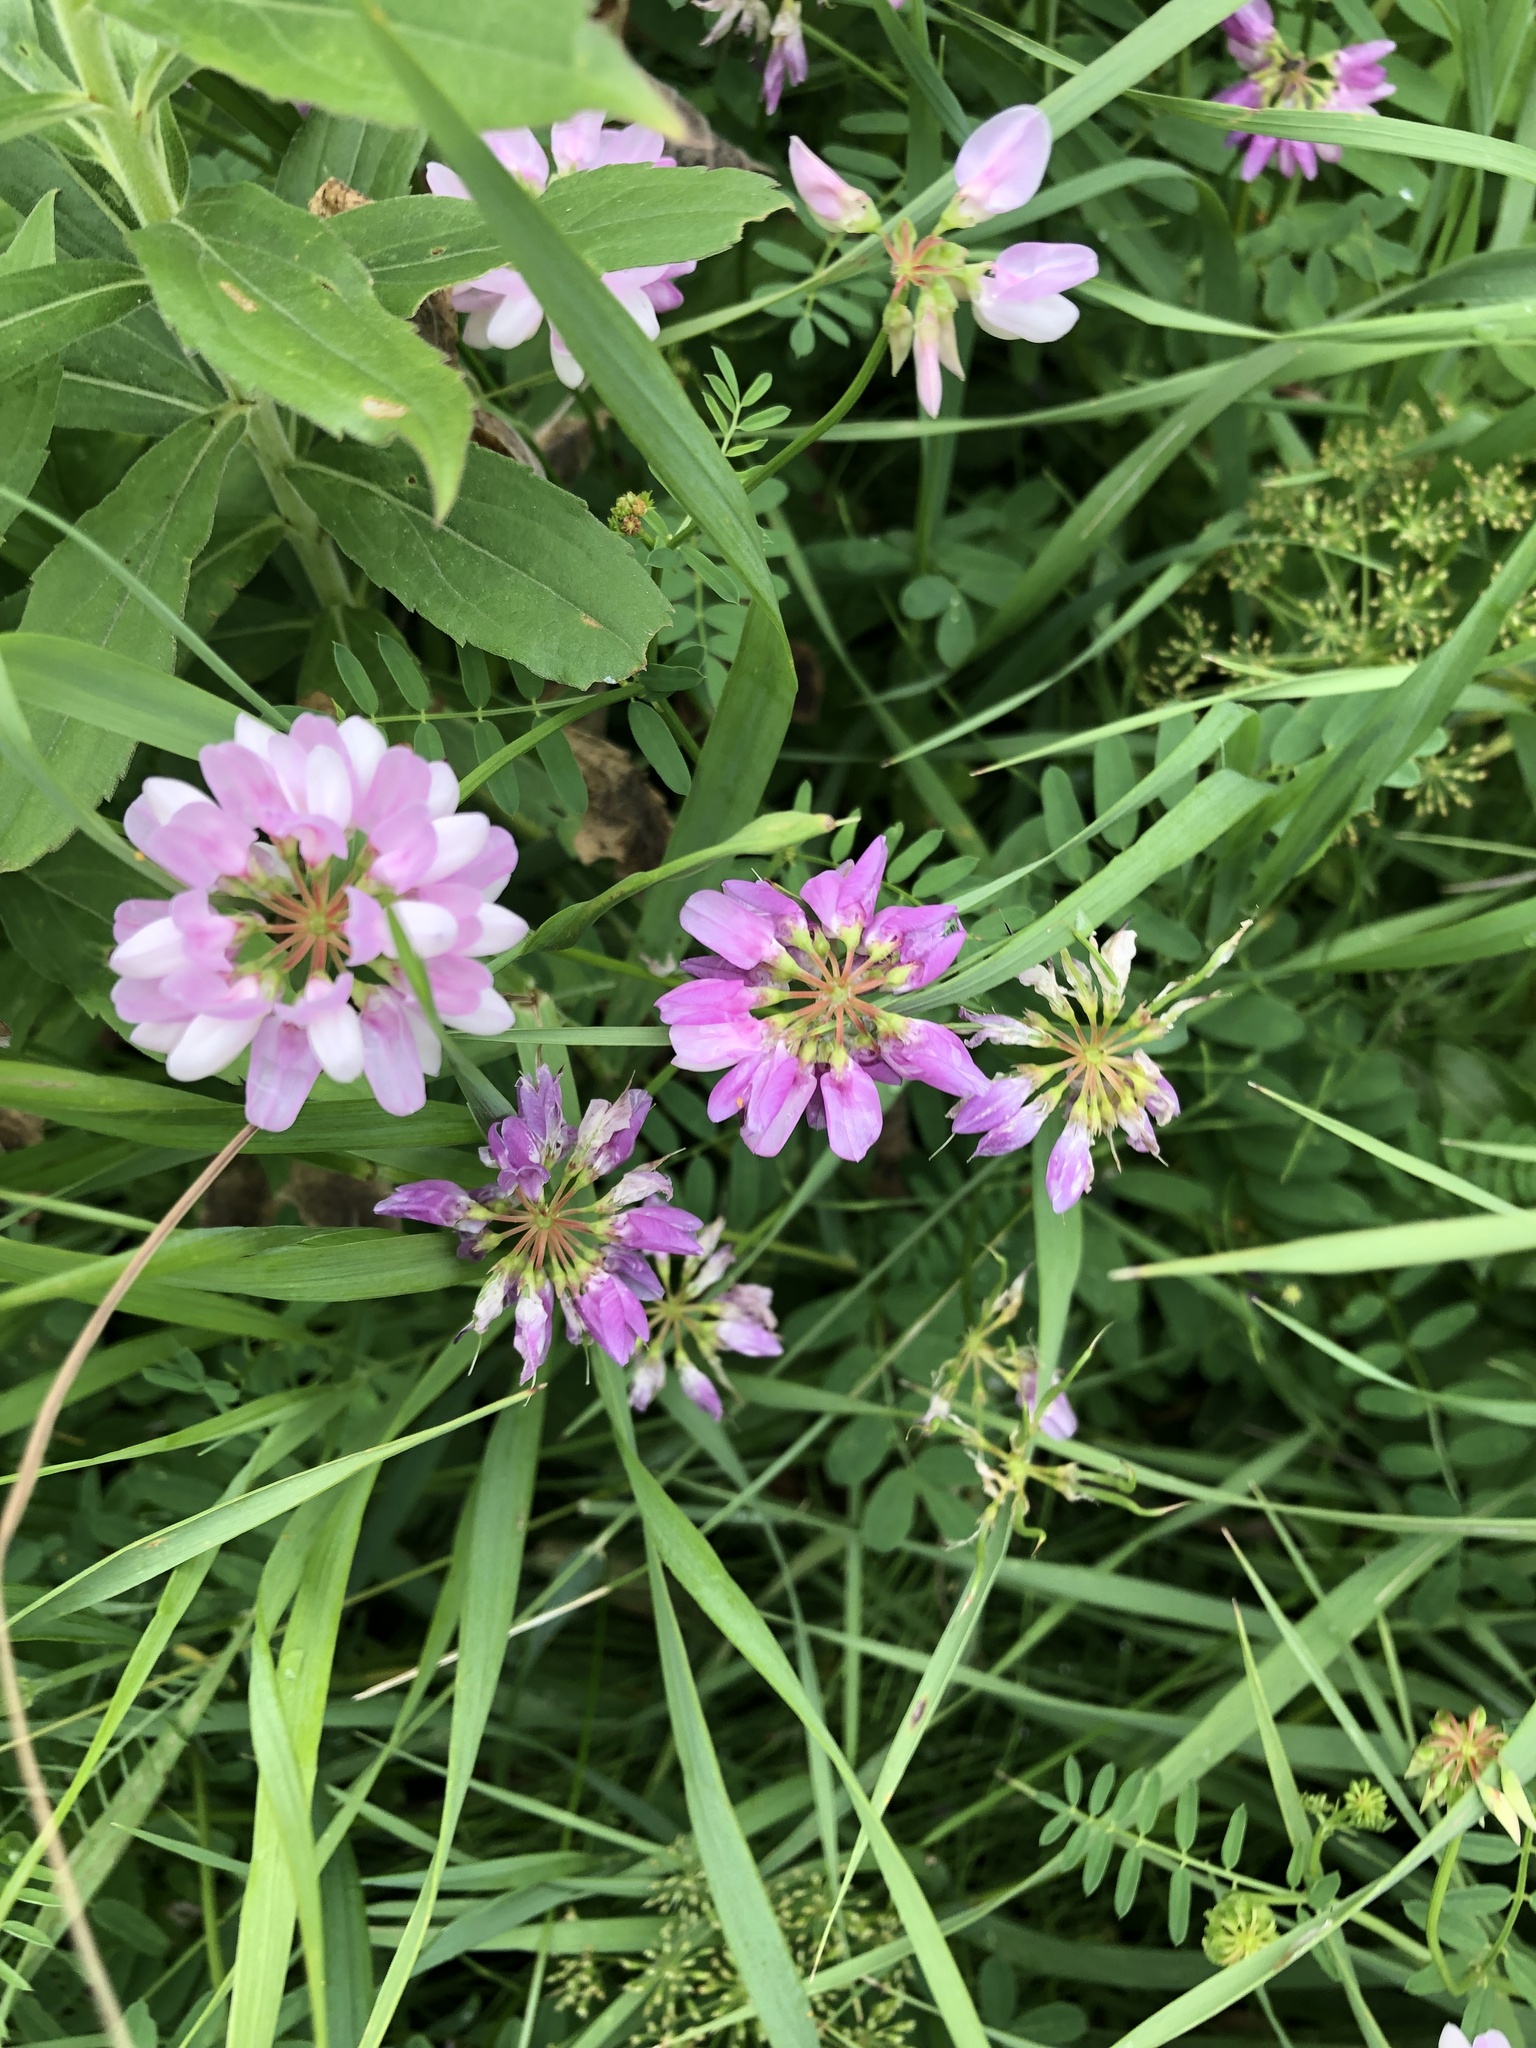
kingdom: Plantae
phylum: Tracheophyta
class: Magnoliopsida
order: Fabales
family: Fabaceae
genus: Coronilla
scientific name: Coronilla varia
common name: Crownvetch
